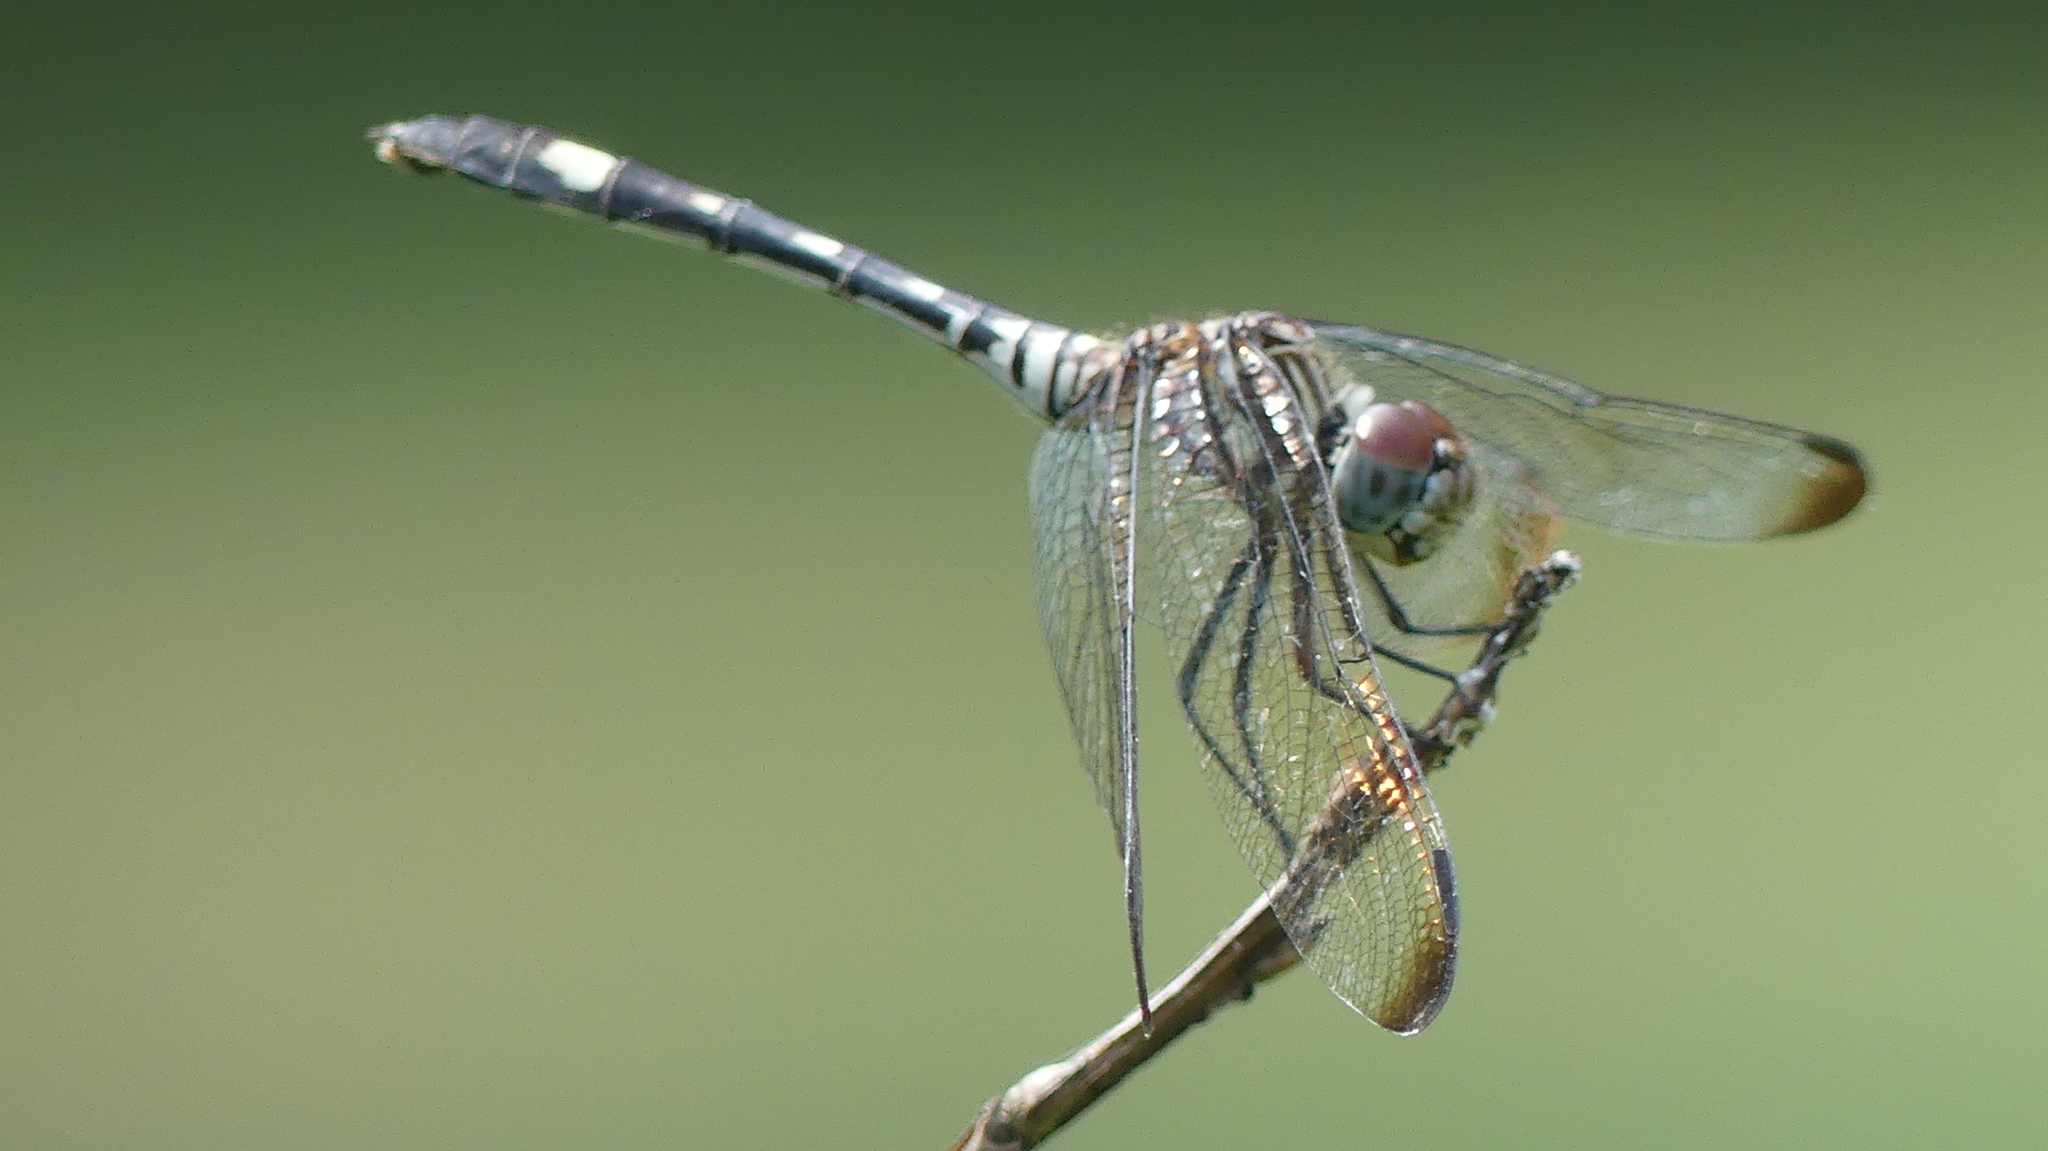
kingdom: Animalia
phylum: Arthropoda
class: Insecta
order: Odonata
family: Libellulidae
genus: Dythemis
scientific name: Dythemis velox
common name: Swift setwing
